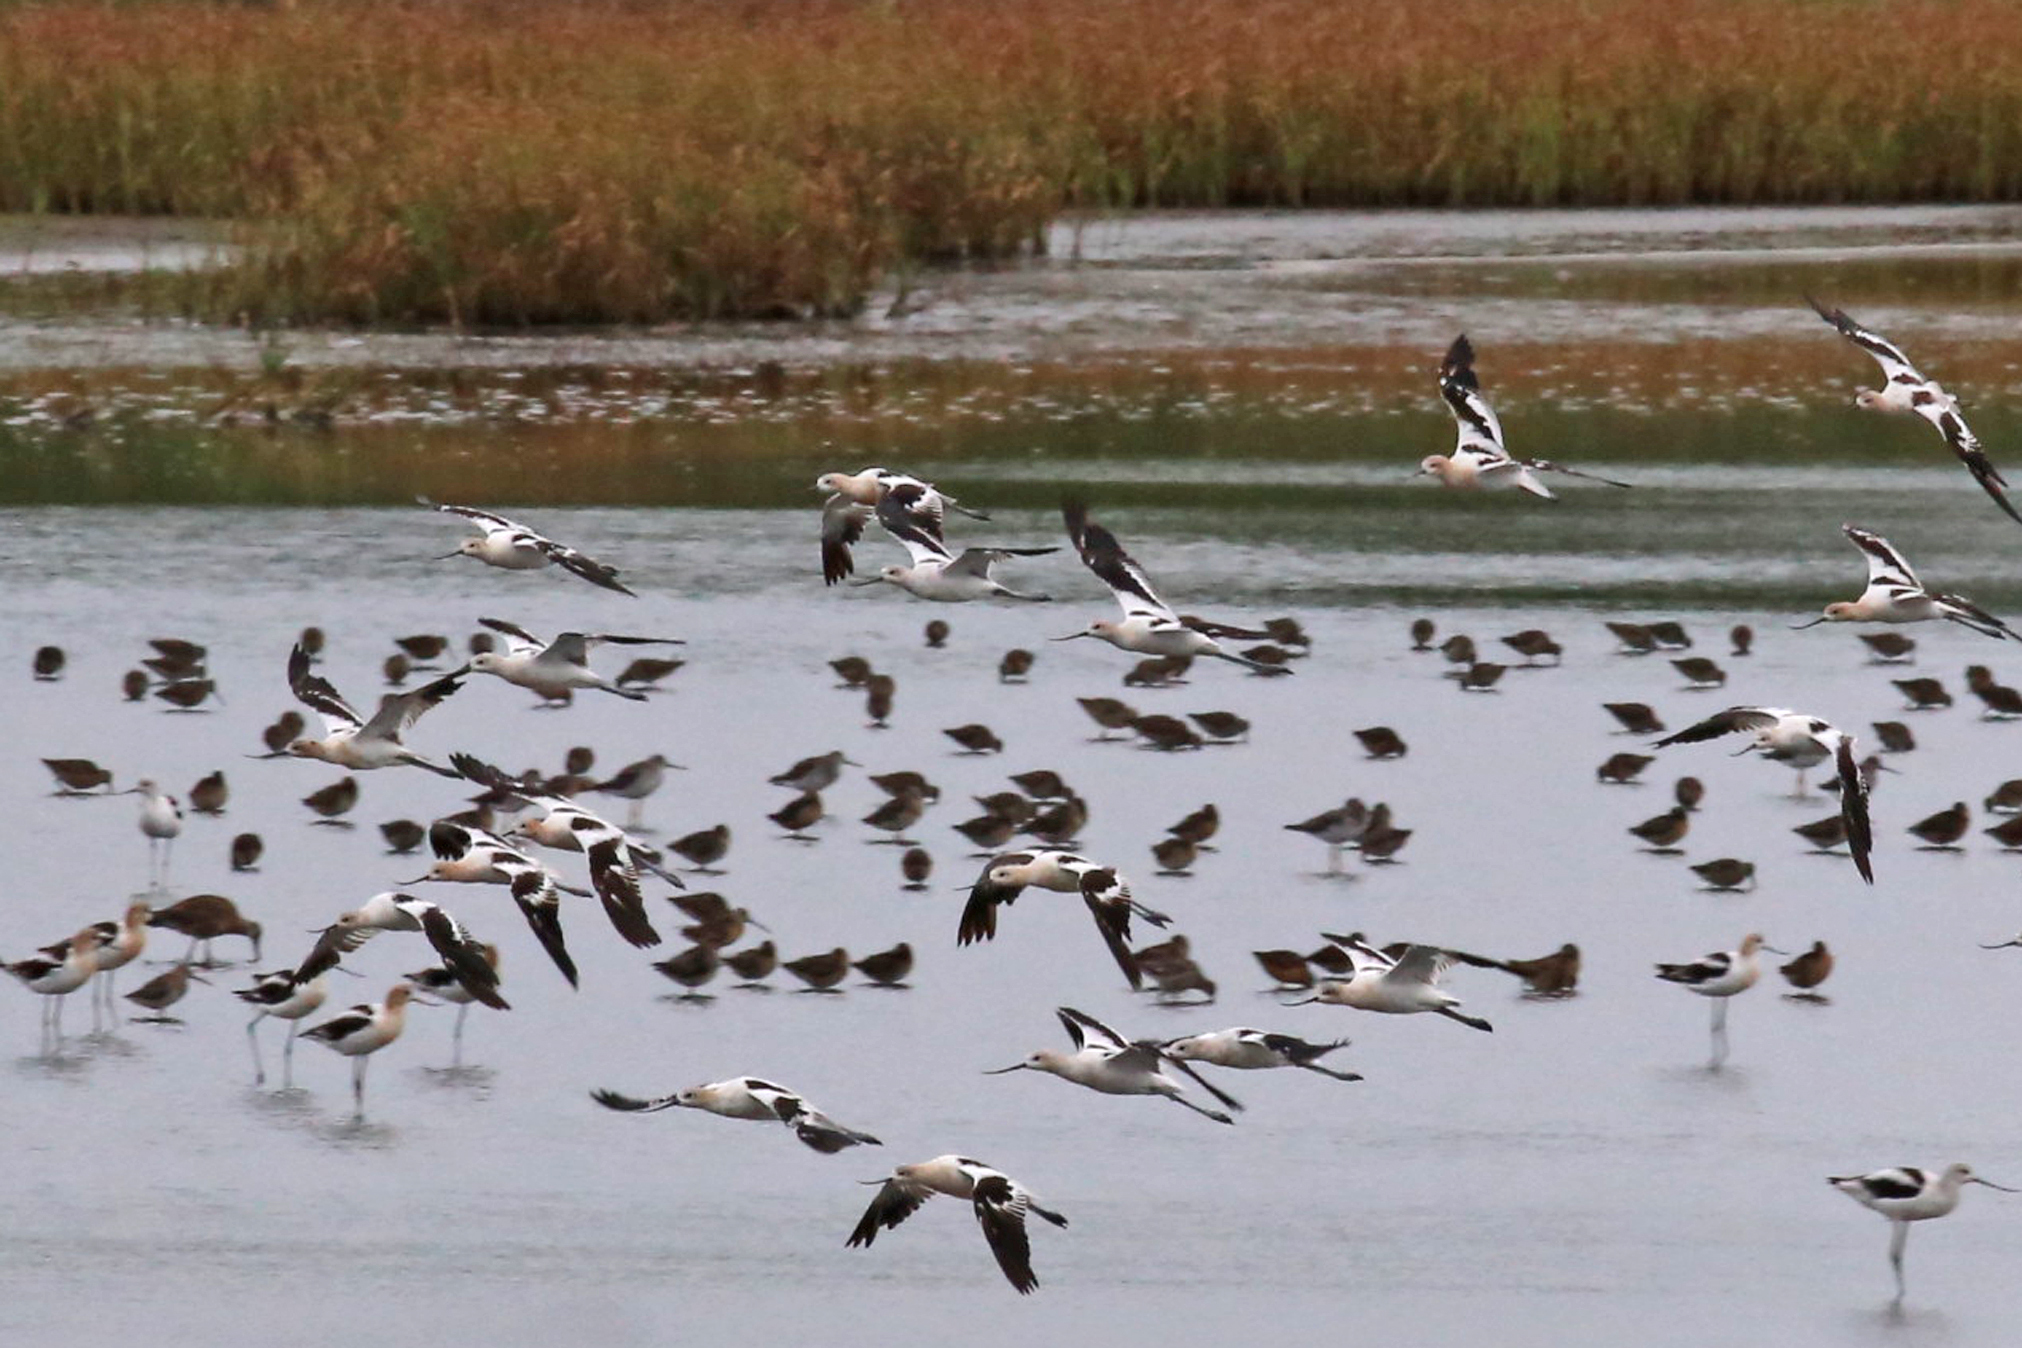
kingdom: Animalia
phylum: Chordata
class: Aves
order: Charadriiformes
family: Recurvirostridae
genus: Recurvirostra
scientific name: Recurvirostra americana
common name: American avocet
